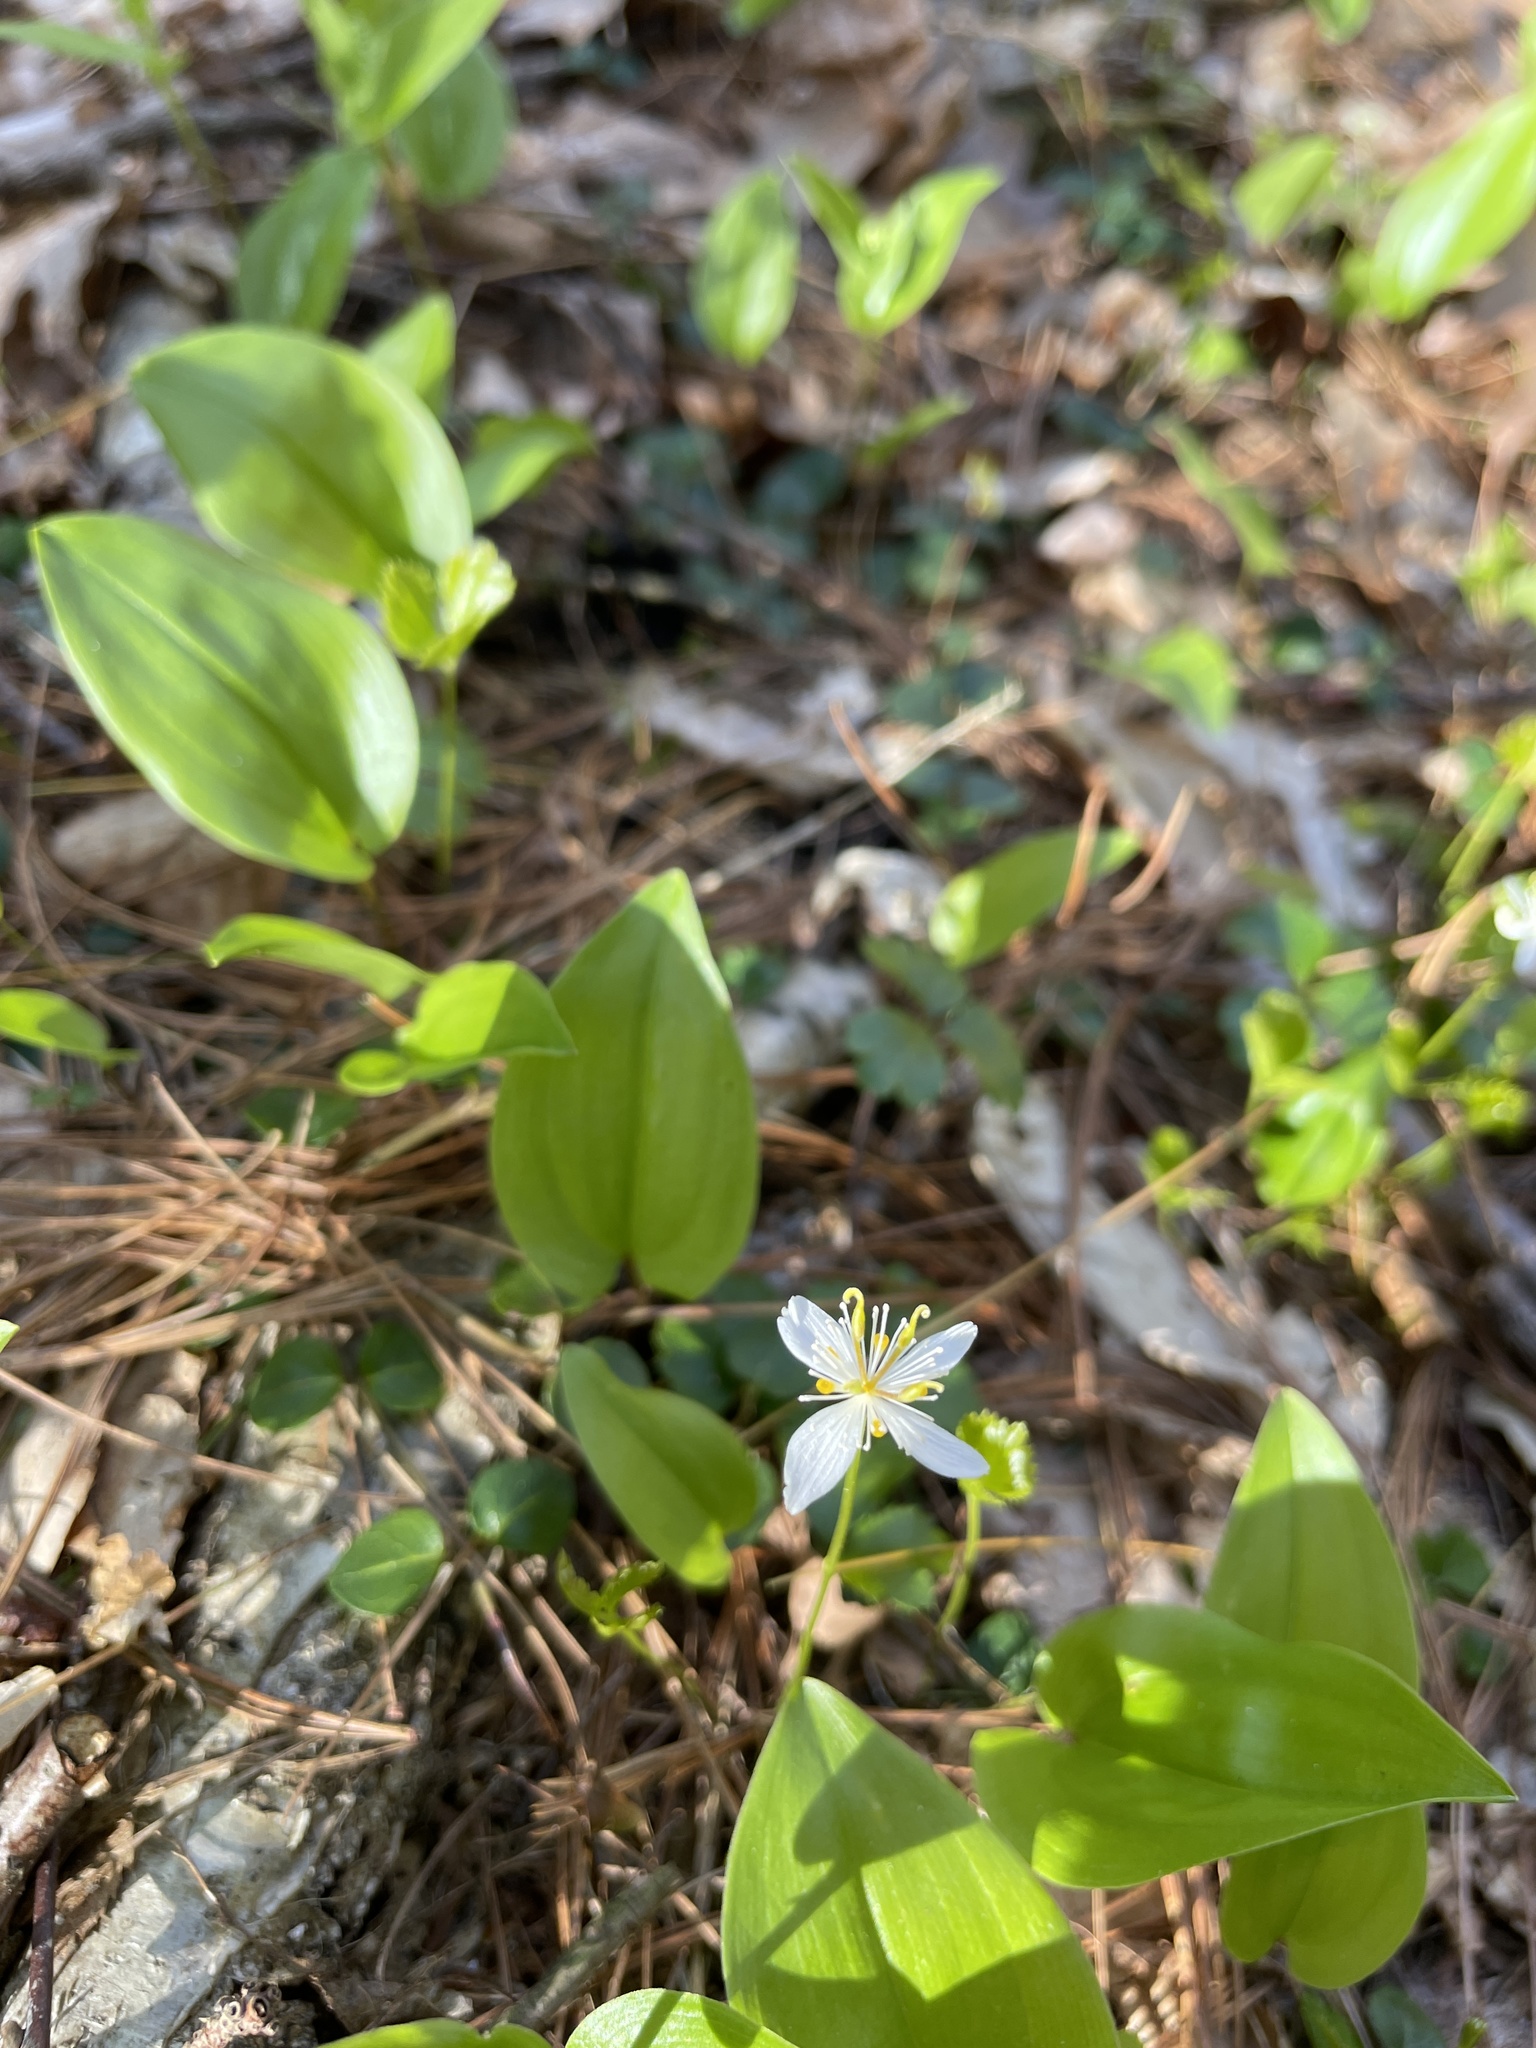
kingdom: Plantae
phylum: Tracheophyta
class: Magnoliopsida
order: Ranunculales
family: Ranunculaceae
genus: Coptis
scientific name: Coptis trifolia
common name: Canker-root
